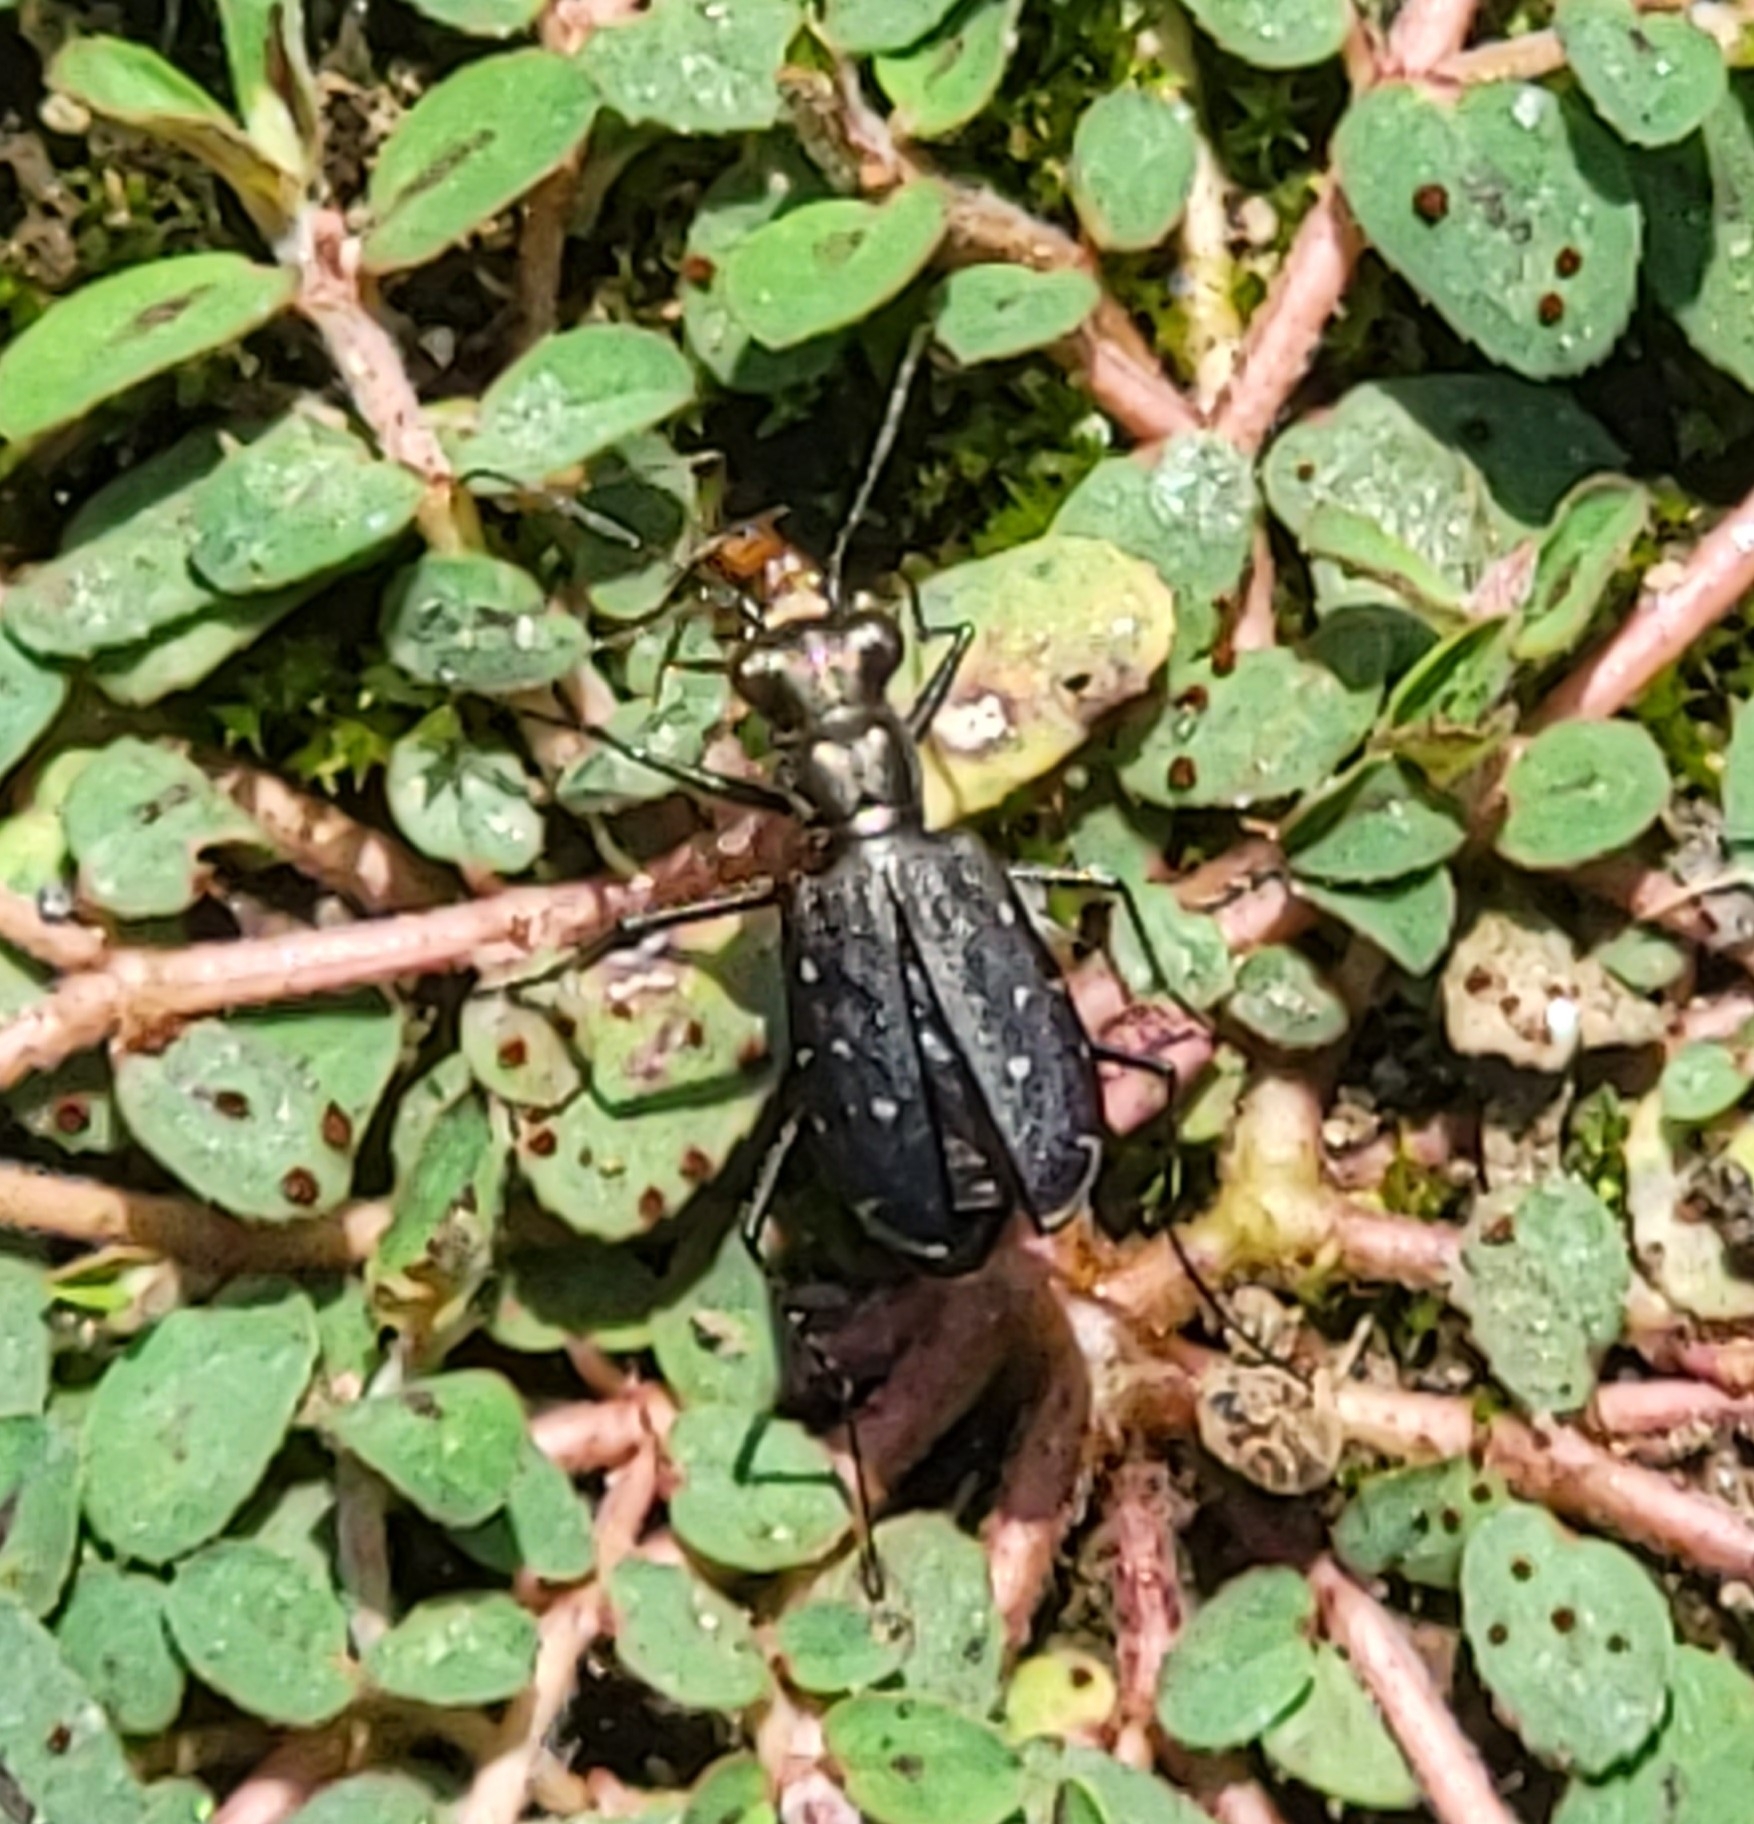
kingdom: Animalia
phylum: Arthropoda
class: Insecta
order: Coleoptera
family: Carabidae
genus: Cicindela
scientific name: Cicindela punctulata
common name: Punctured tiger beetle
